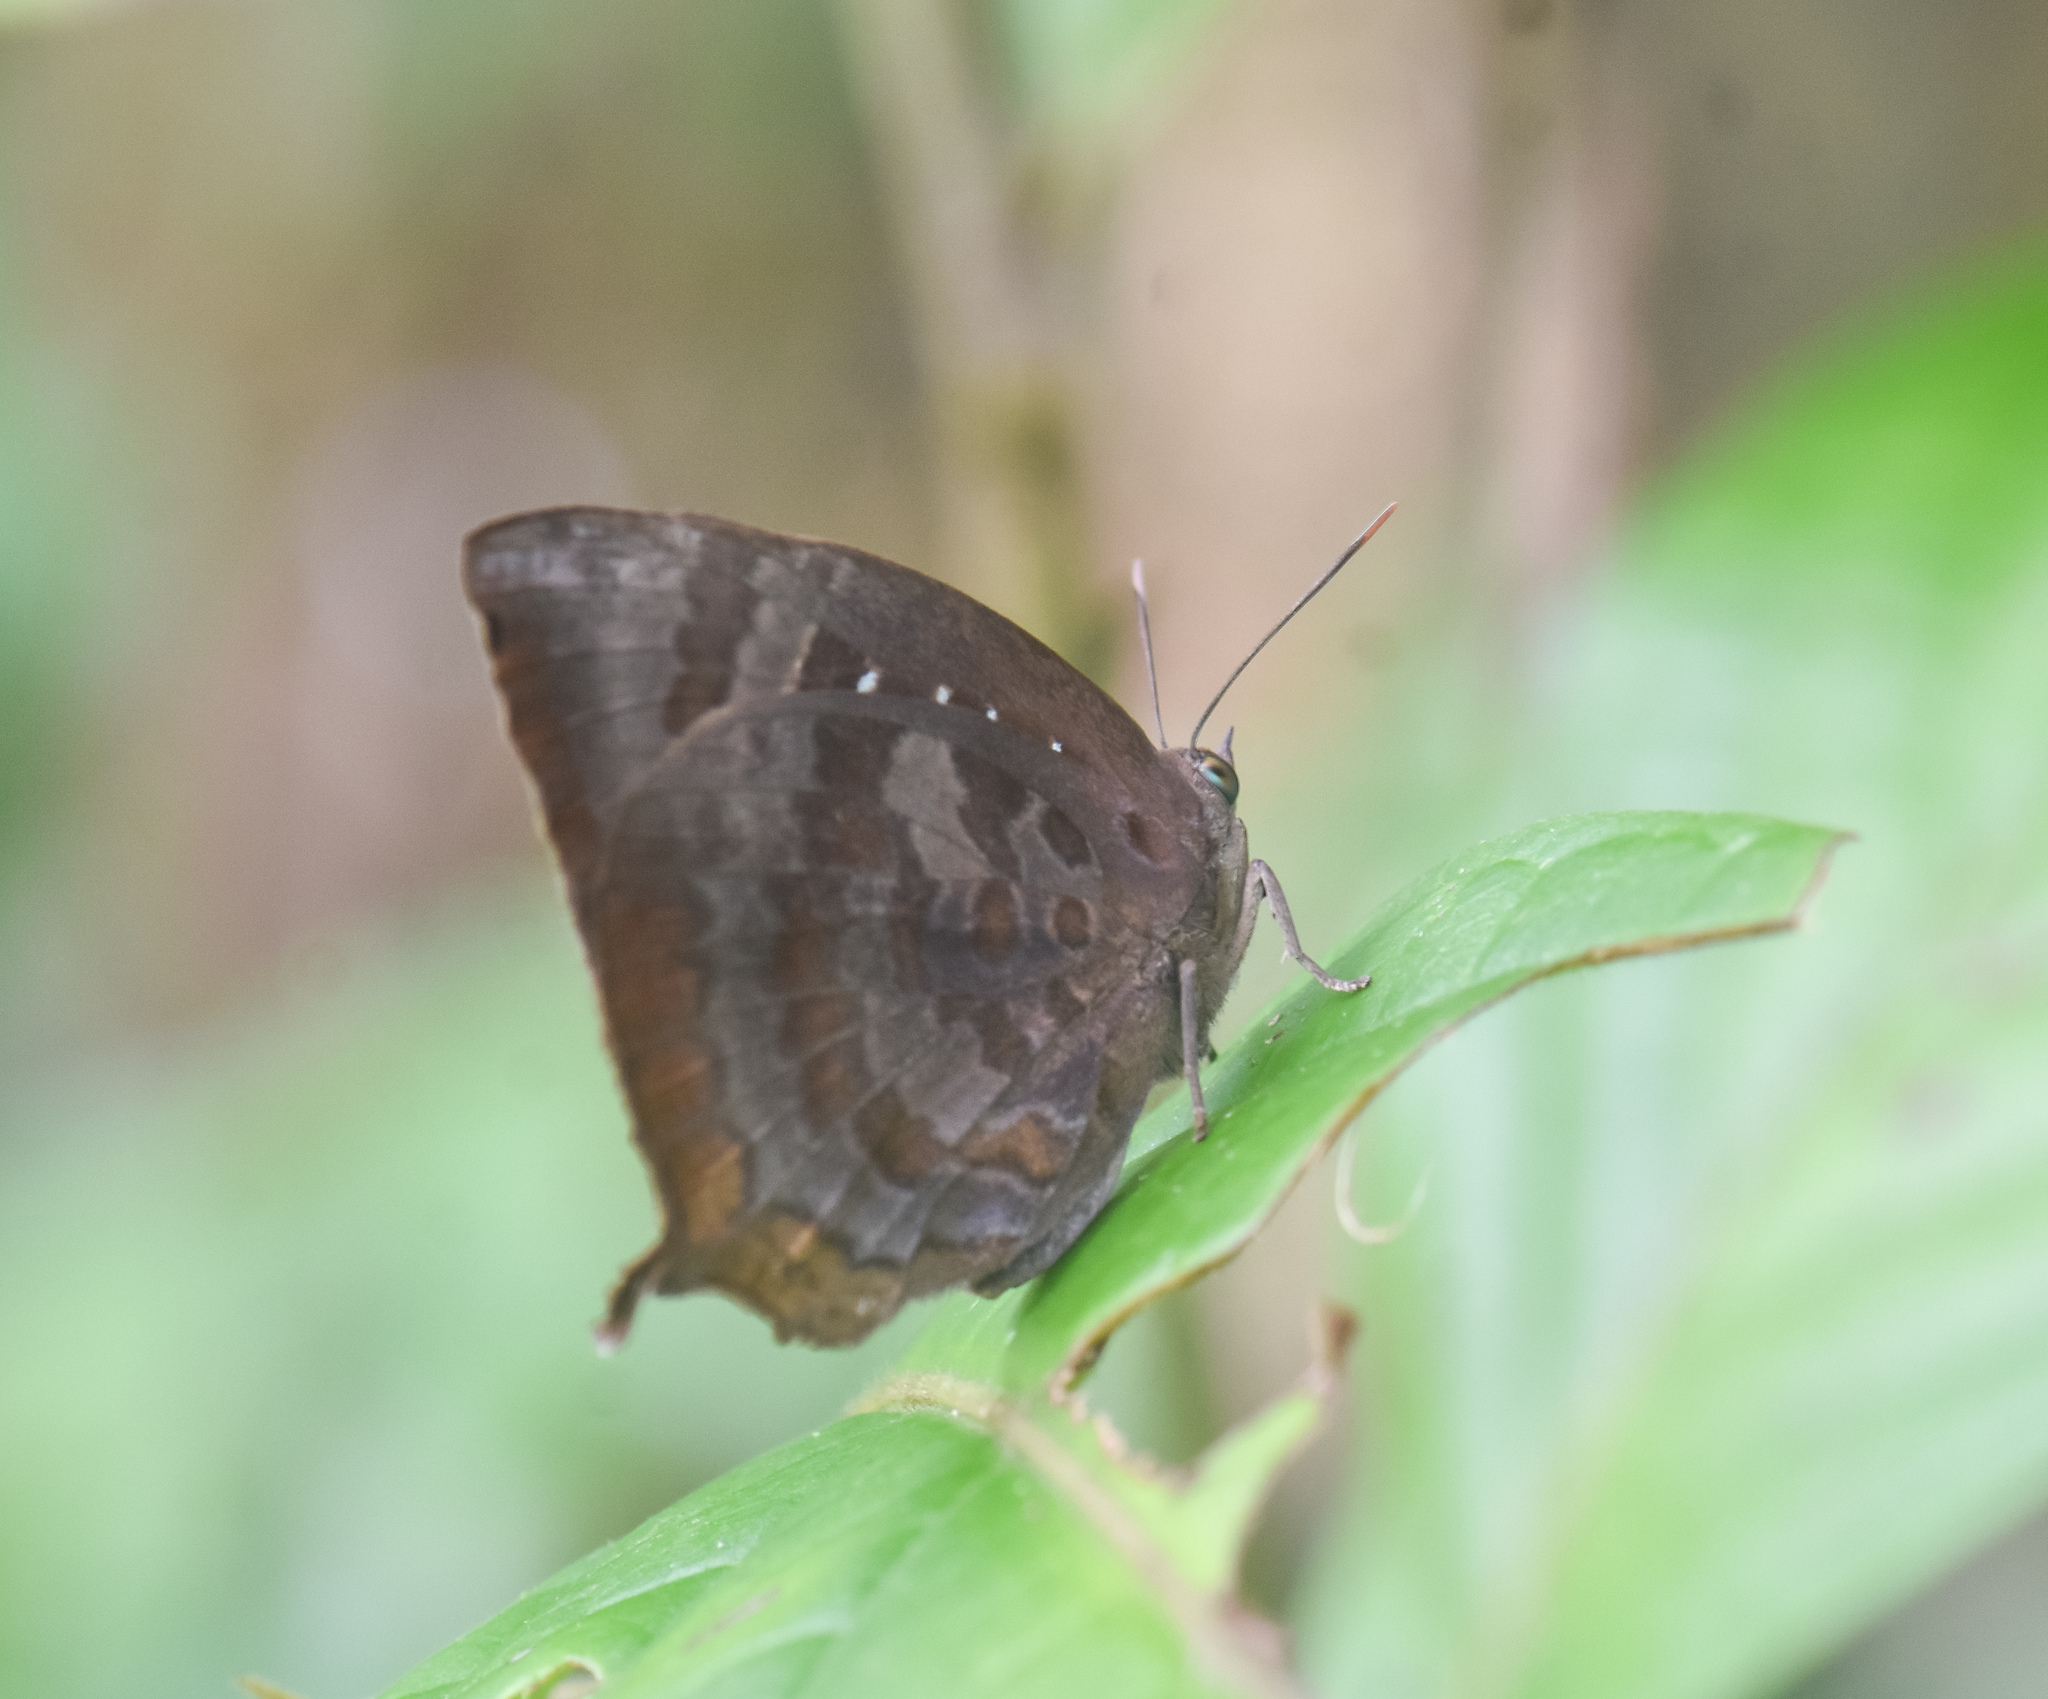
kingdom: Animalia
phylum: Arthropoda
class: Insecta
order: Lepidoptera
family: Lycaenidae
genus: Arhopala
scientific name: Arhopala centaurus
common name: Dull oak-blue
